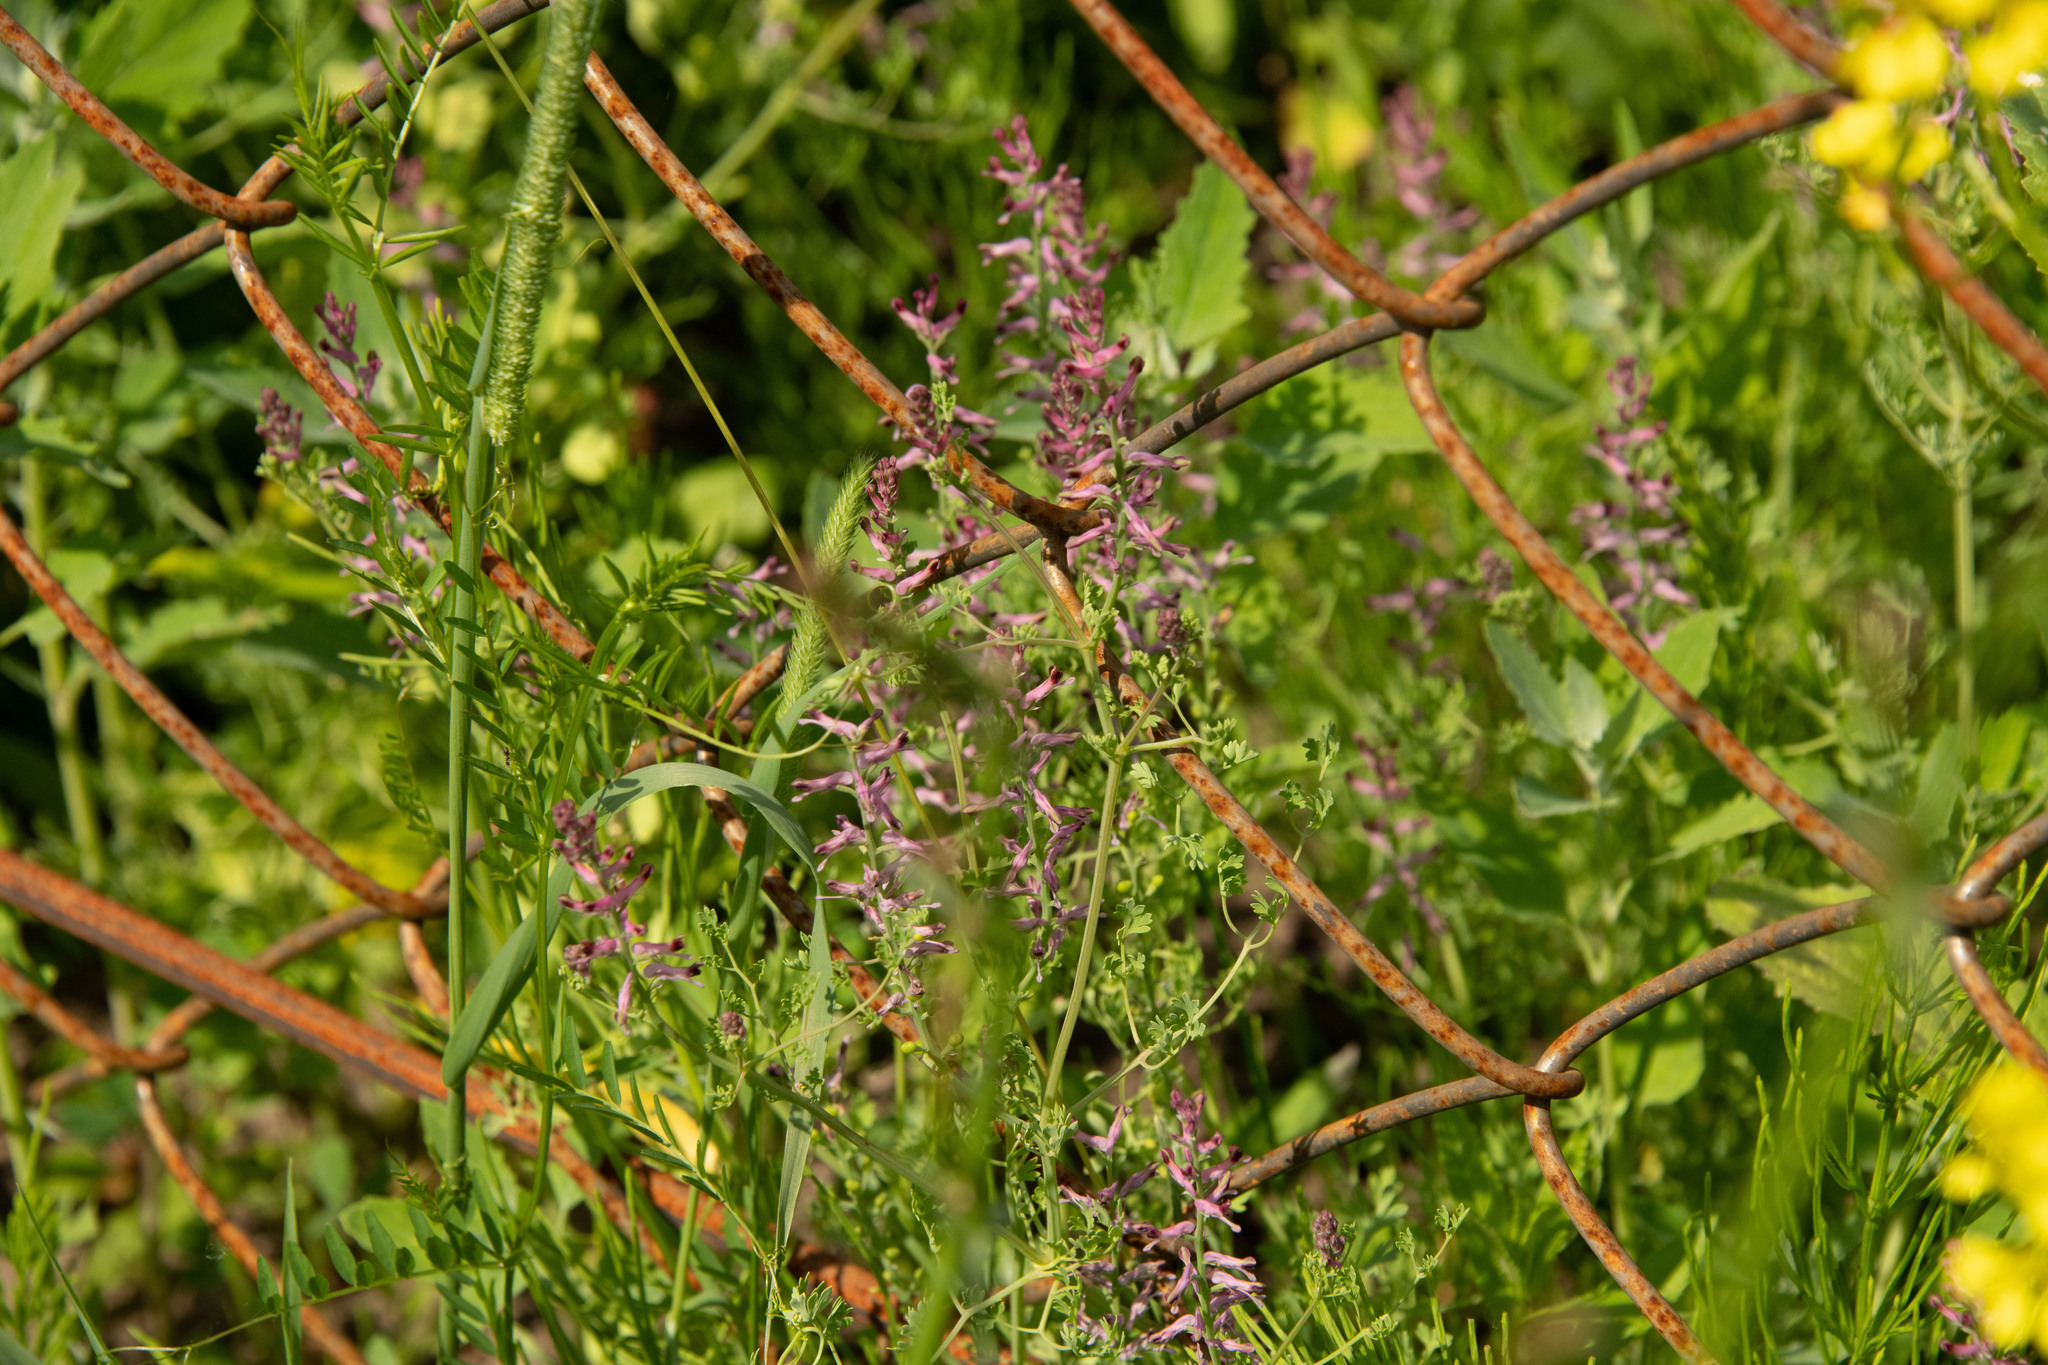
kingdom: Plantae
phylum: Tracheophyta
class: Magnoliopsida
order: Ranunculales
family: Papaveraceae
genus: Fumaria
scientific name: Fumaria officinalis
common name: Common fumitory
